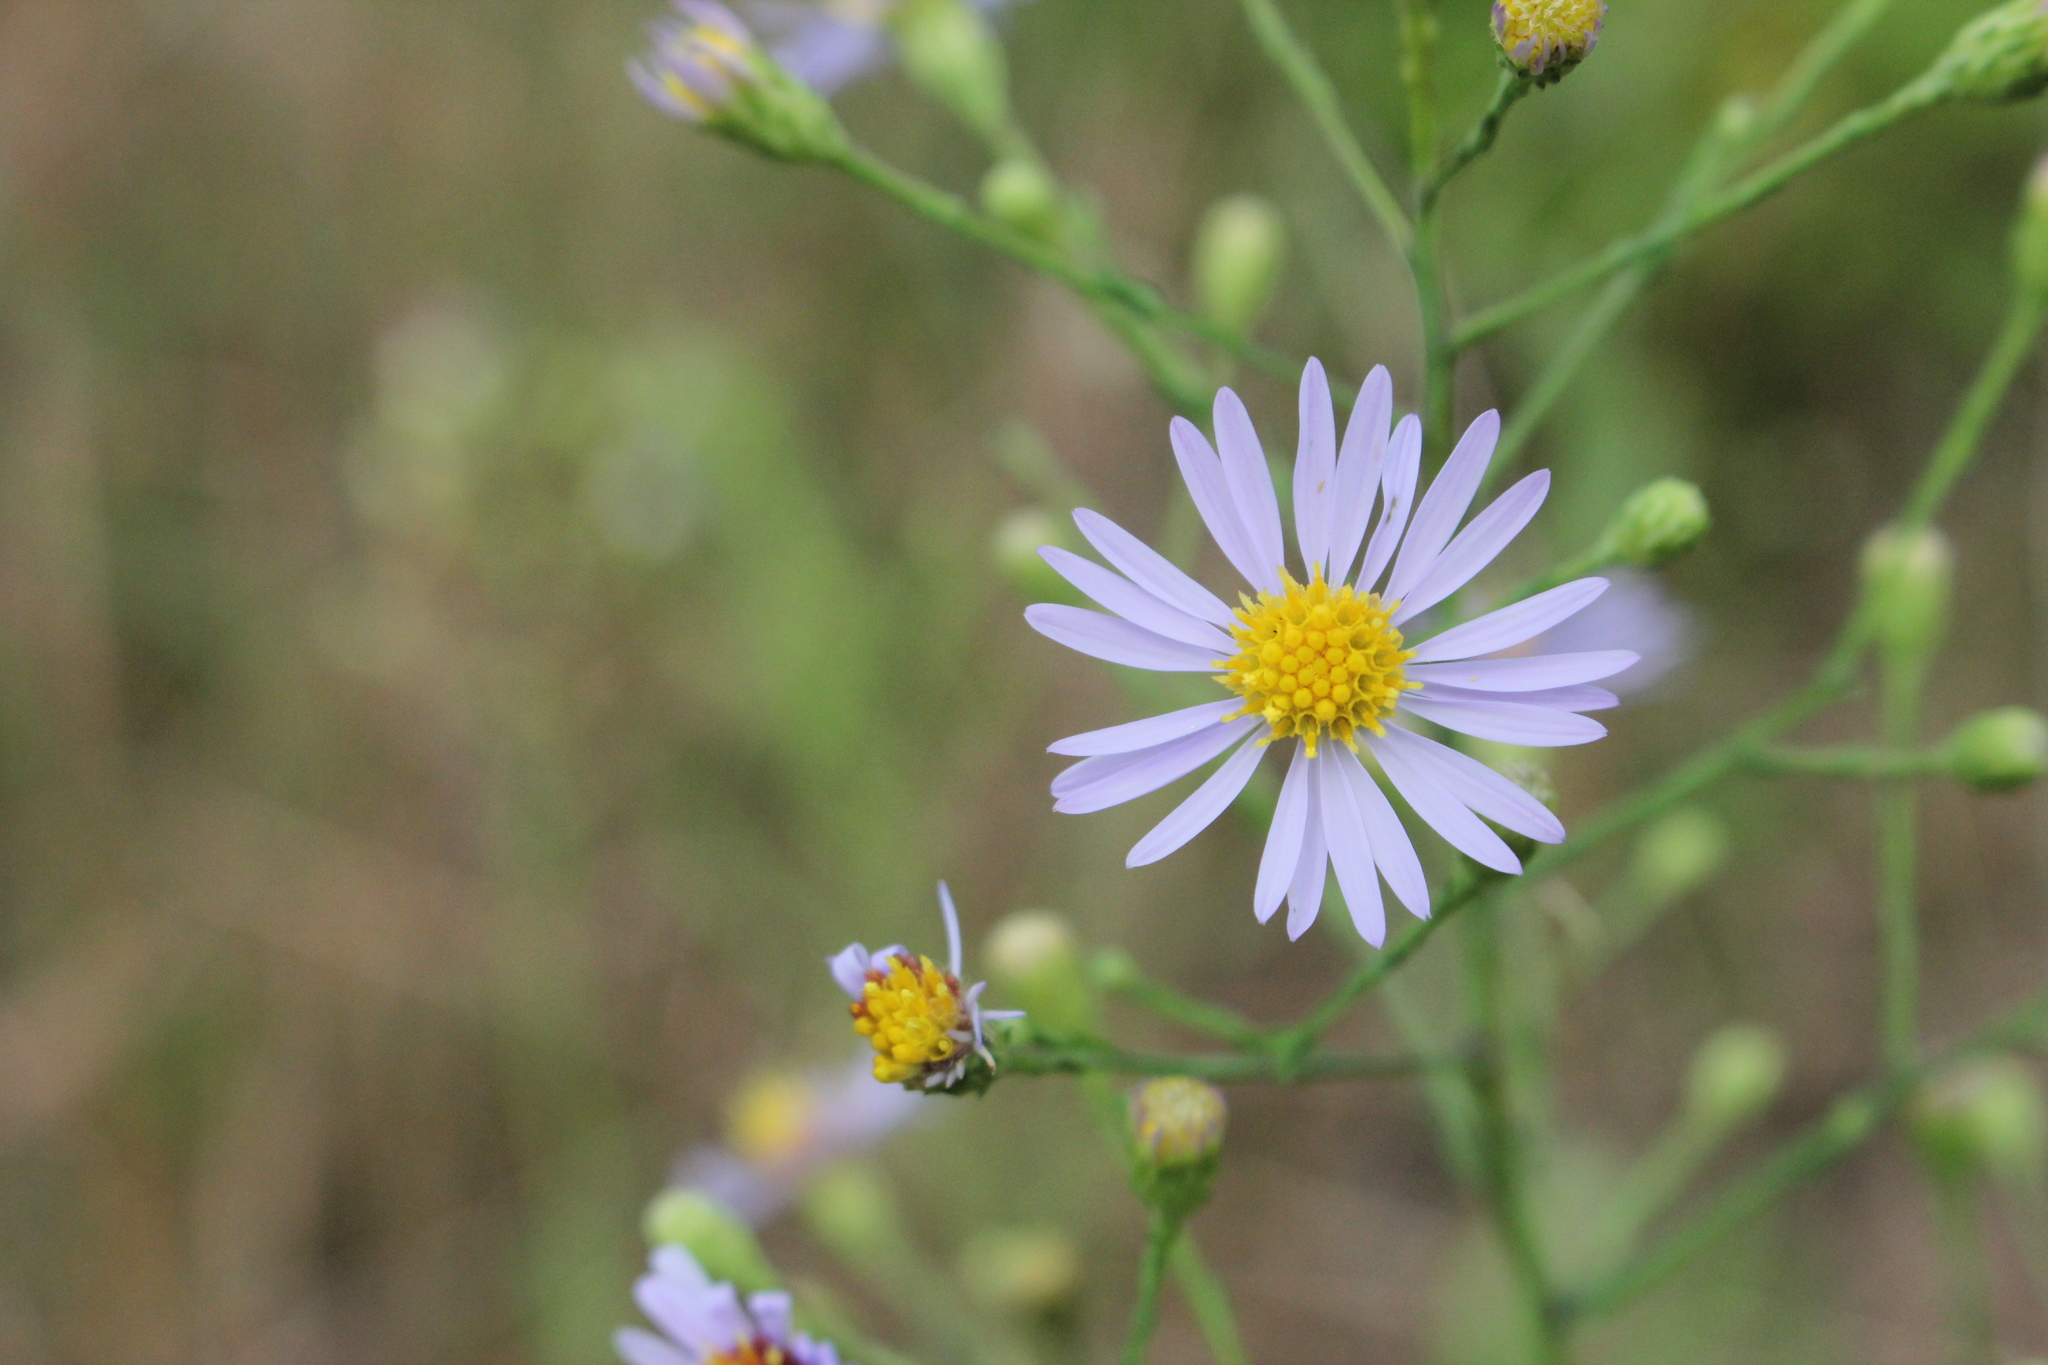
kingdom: Plantae
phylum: Tracheophyta
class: Magnoliopsida
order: Asterales
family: Asteraceae
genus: Symphyotrichum
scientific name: Symphyotrichum laeve
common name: Glaucous aster
